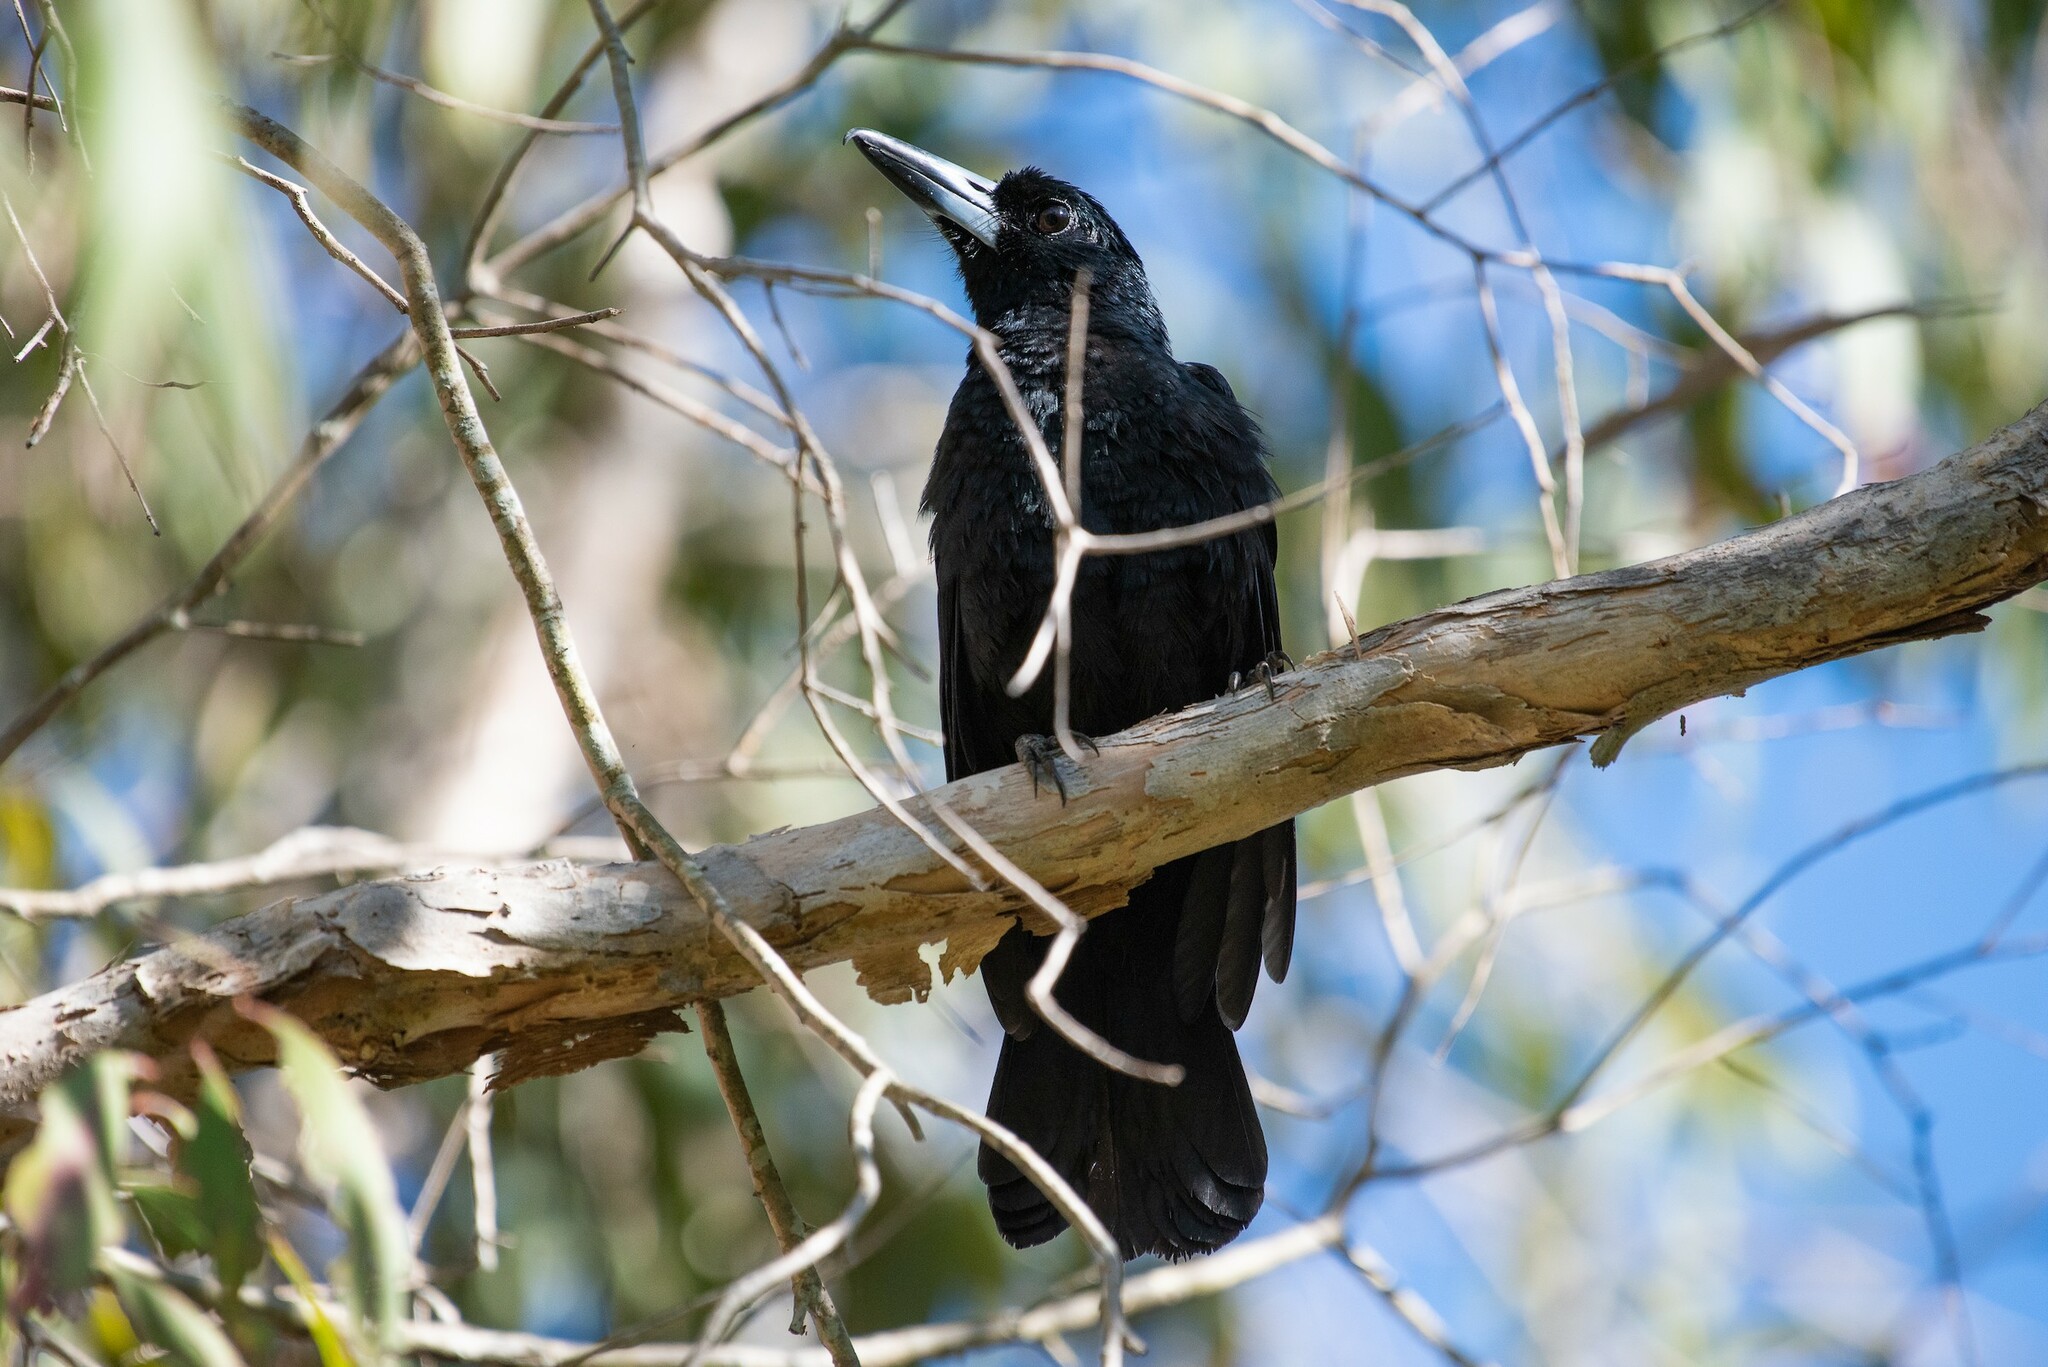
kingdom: Animalia
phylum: Chordata
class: Aves
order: Passeriformes
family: Artamidae
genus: Melloria
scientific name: Melloria quoyi
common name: Black butcherbird
